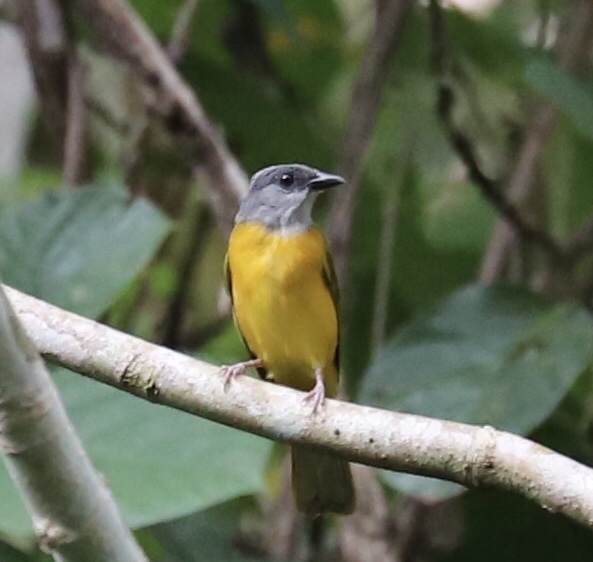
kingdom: Animalia
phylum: Chordata
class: Aves
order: Passeriformes
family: Thraupidae
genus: Eucometis
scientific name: Eucometis penicillata
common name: Grey-headed tanager
